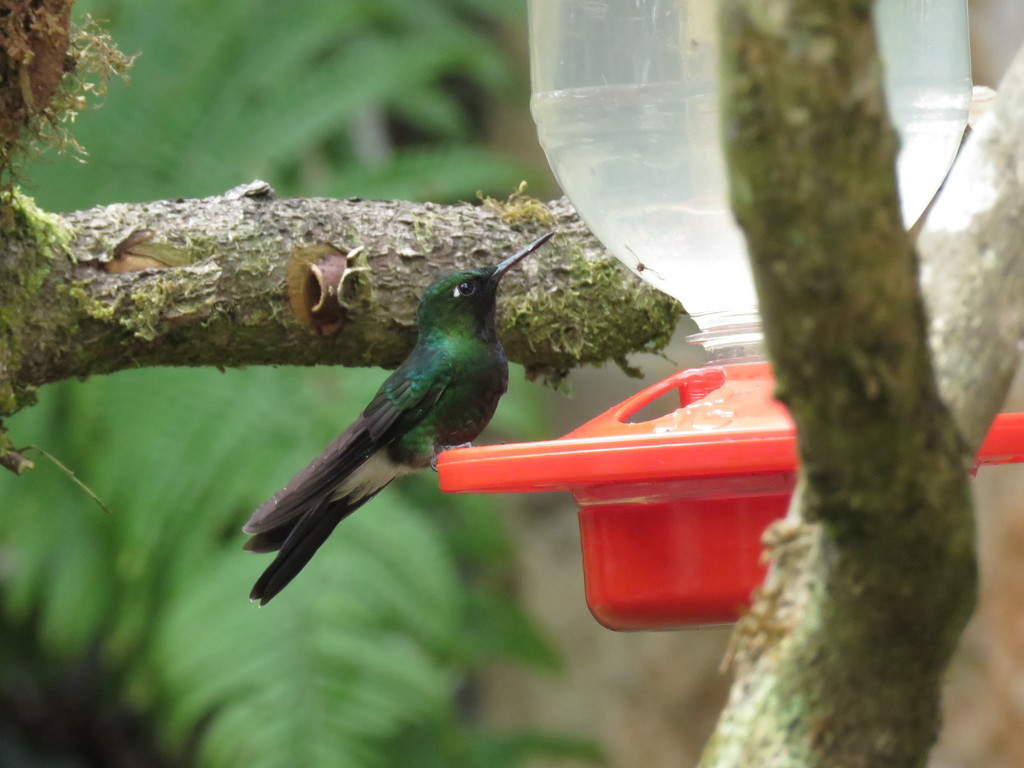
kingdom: Animalia
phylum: Chordata
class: Aves
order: Apodiformes
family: Trochilidae
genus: Heliangelus
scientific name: Heliangelus exortis
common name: Tourmaline sunangel
